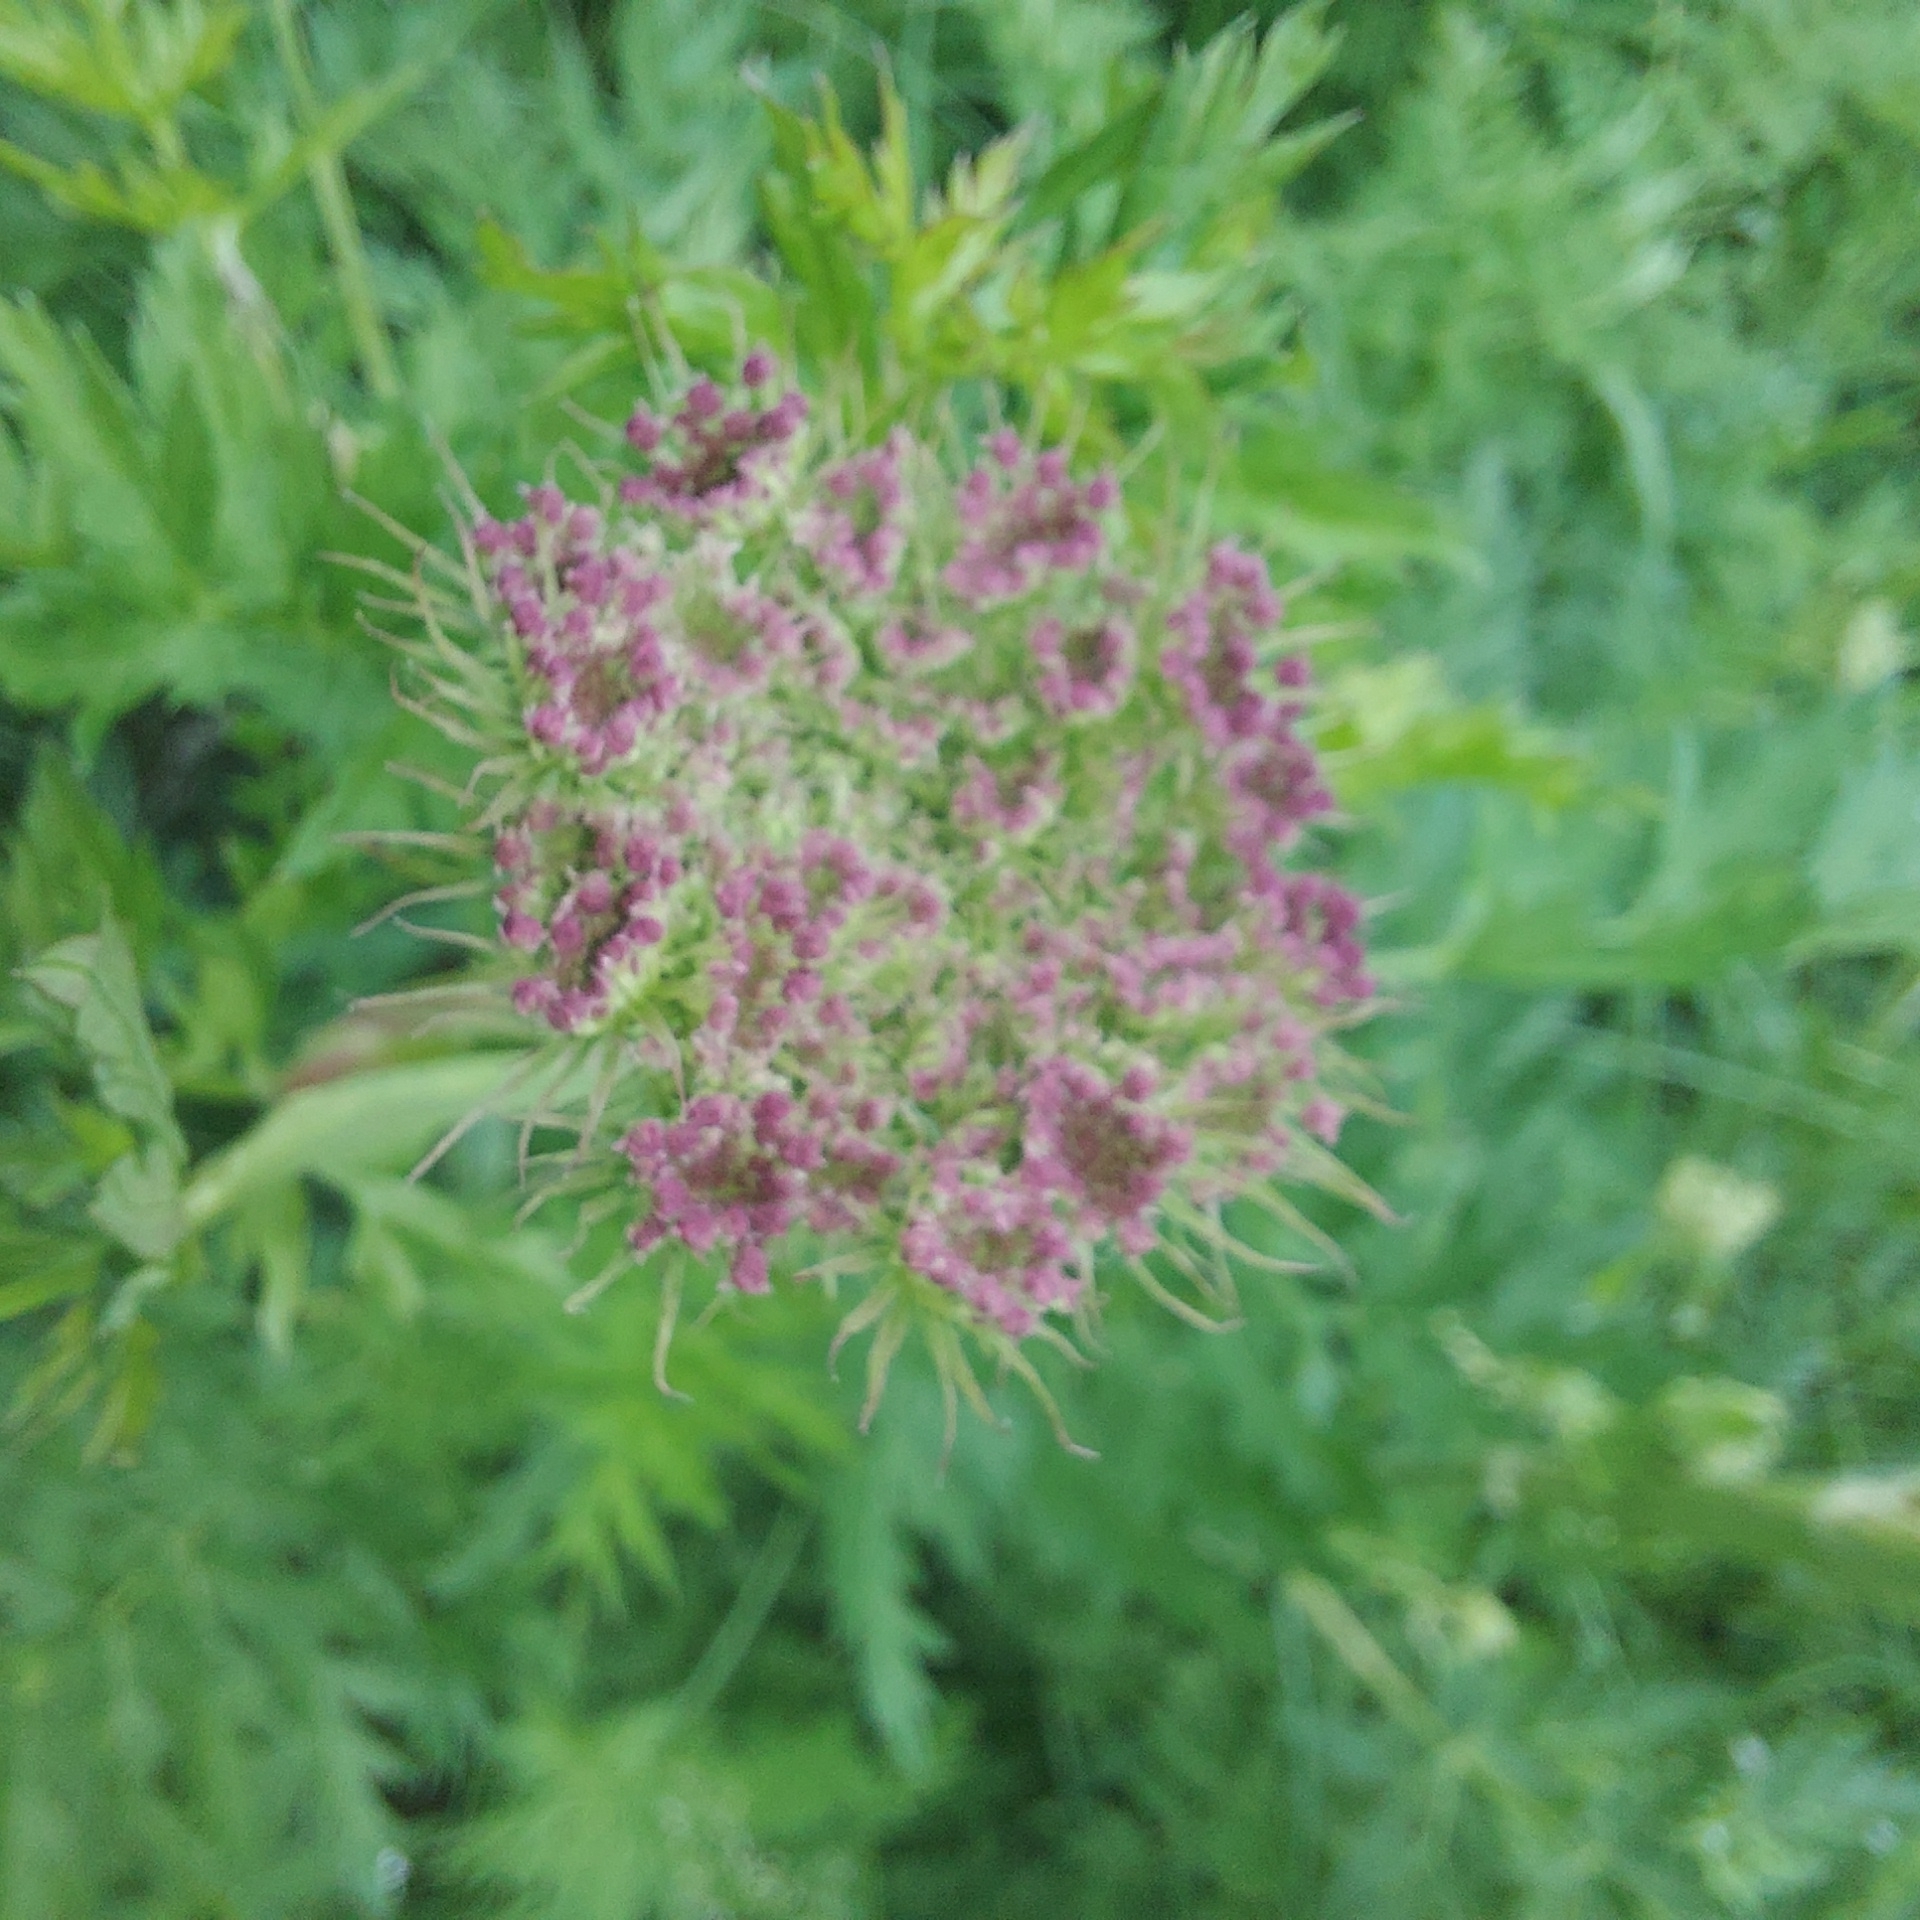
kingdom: Plantae
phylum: Tracheophyta
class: Magnoliopsida
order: Apiales
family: Apiaceae
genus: Seseli
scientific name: Seseli libanotis
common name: Mooncarrot
